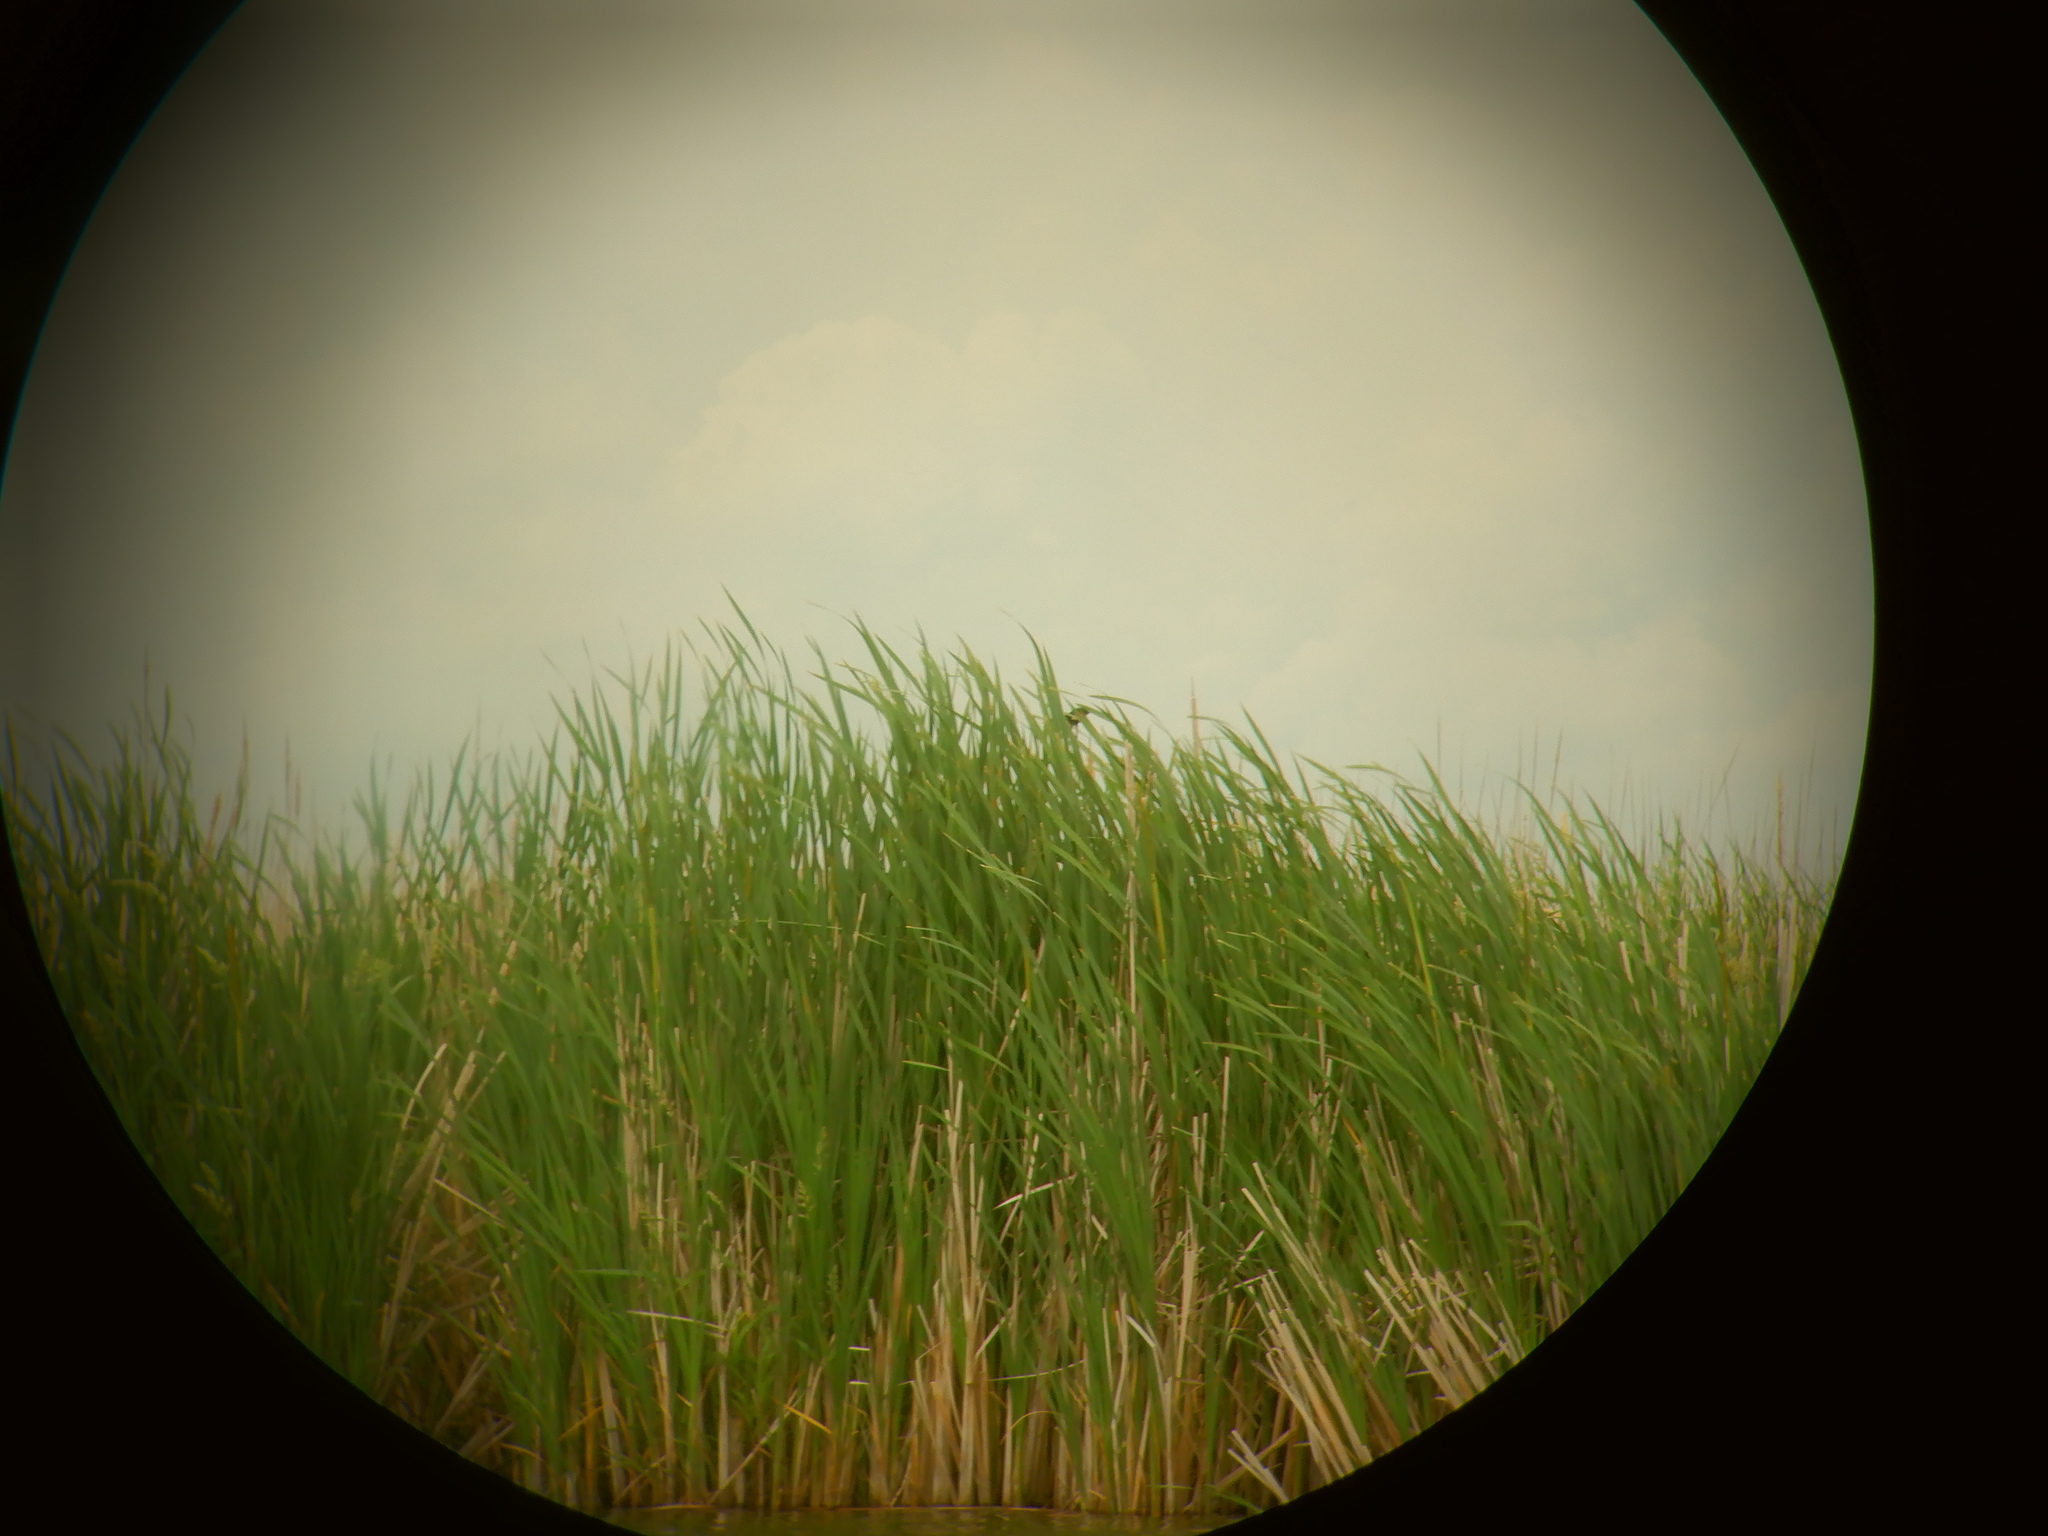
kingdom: Animalia
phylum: Chordata
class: Aves
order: Passeriformes
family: Icteridae
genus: Agelaius
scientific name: Agelaius phoeniceus
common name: Red-winged blackbird
